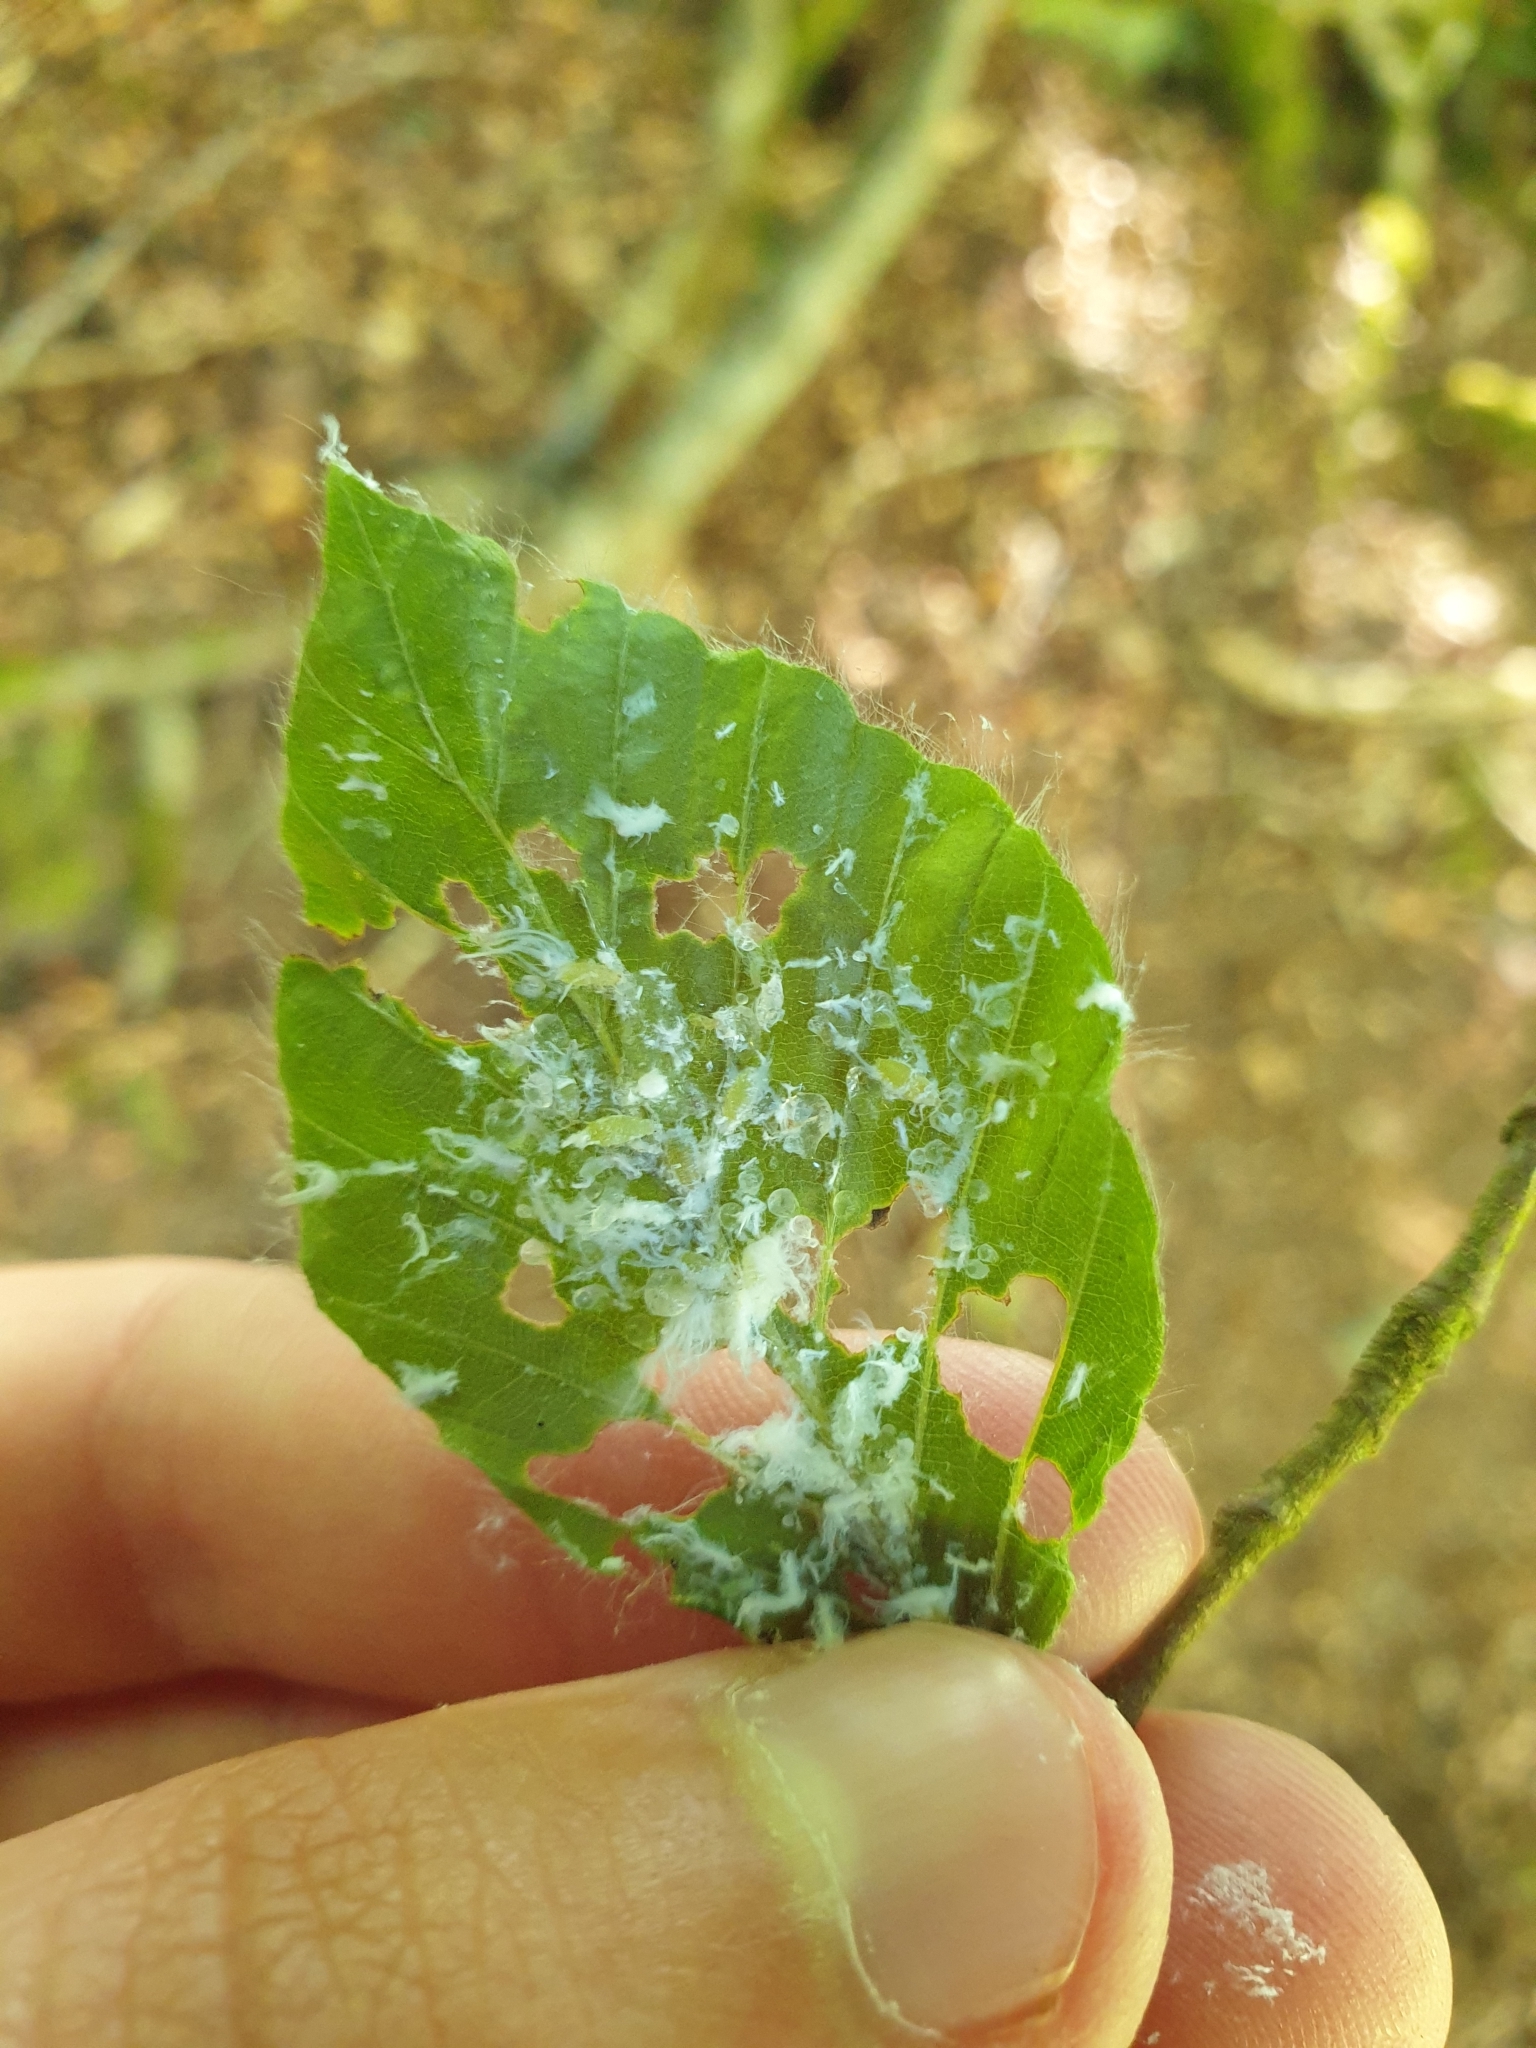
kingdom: Animalia
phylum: Arthropoda
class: Insecta
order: Hemiptera
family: Aphididae
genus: Phyllaphis
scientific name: Phyllaphis fagi
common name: Beech aphid
